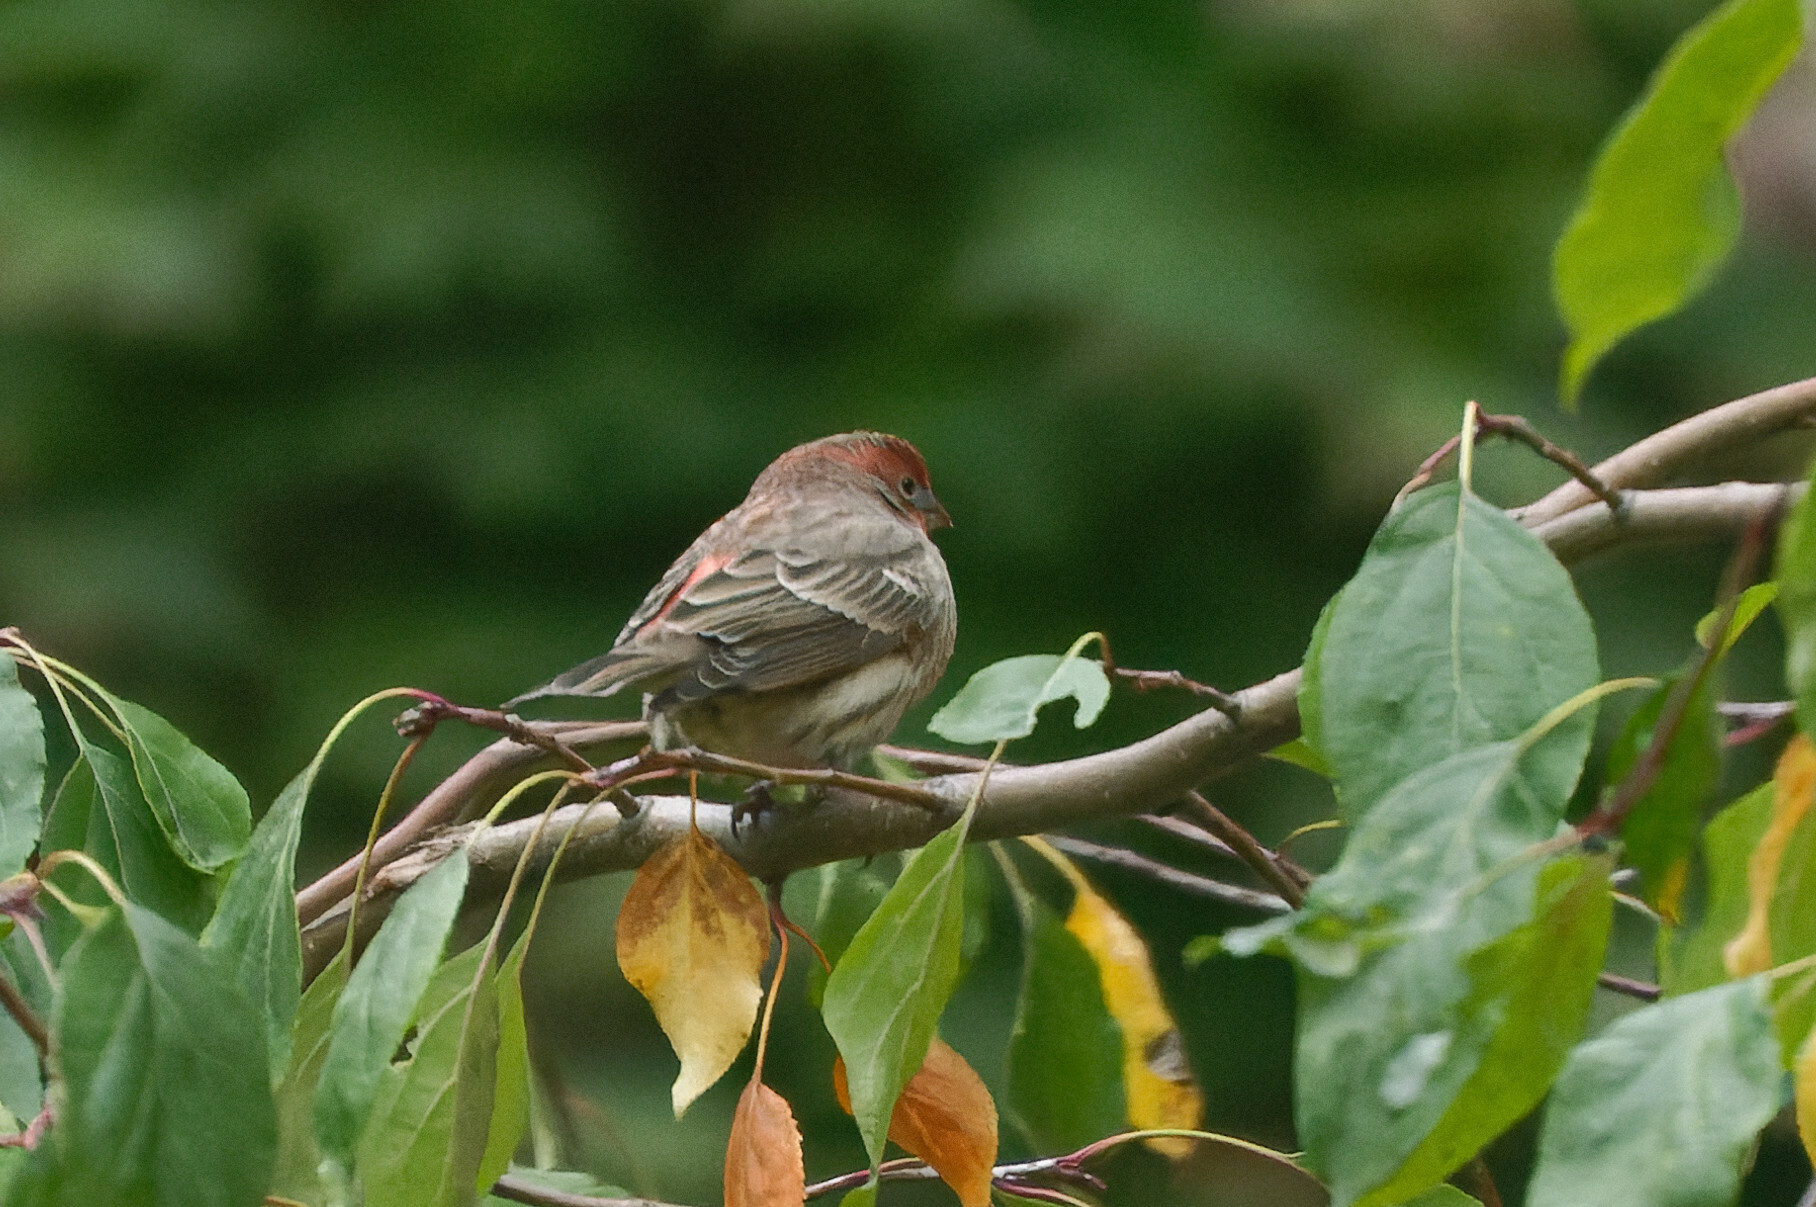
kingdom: Animalia
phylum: Chordata
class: Aves
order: Passeriformes
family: Fringillidae
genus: Haemorhous
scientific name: Haemorhous mexicanus
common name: House finch
